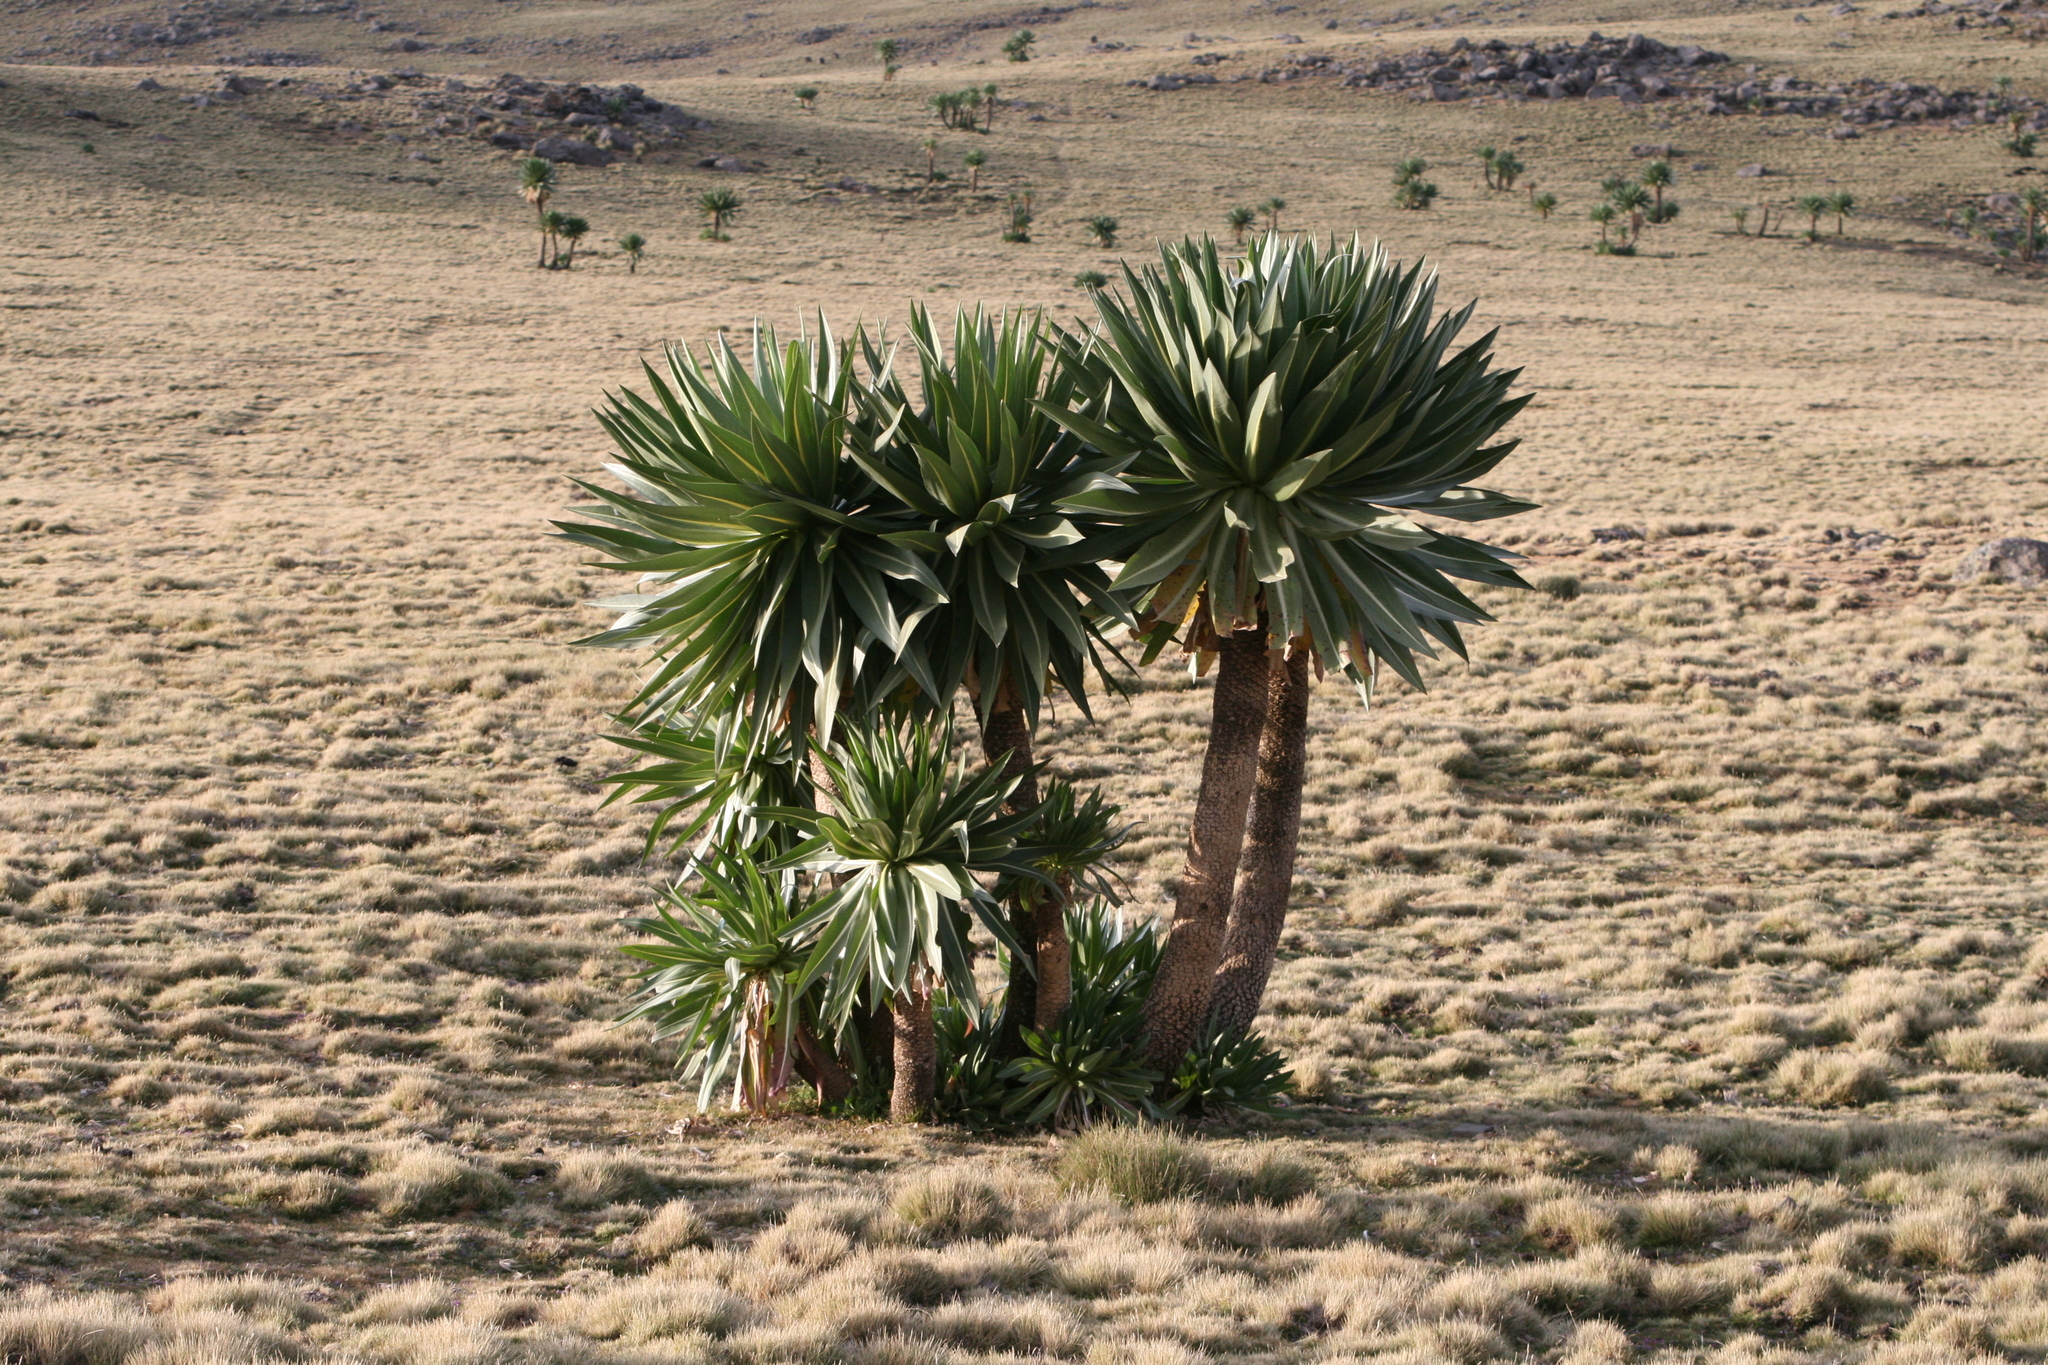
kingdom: Plantae
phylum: Tracheophyta
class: Magnoliopsida
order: Asterales
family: Campanulaceae
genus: Lobelia
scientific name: Lobelia rhynchopetalum
